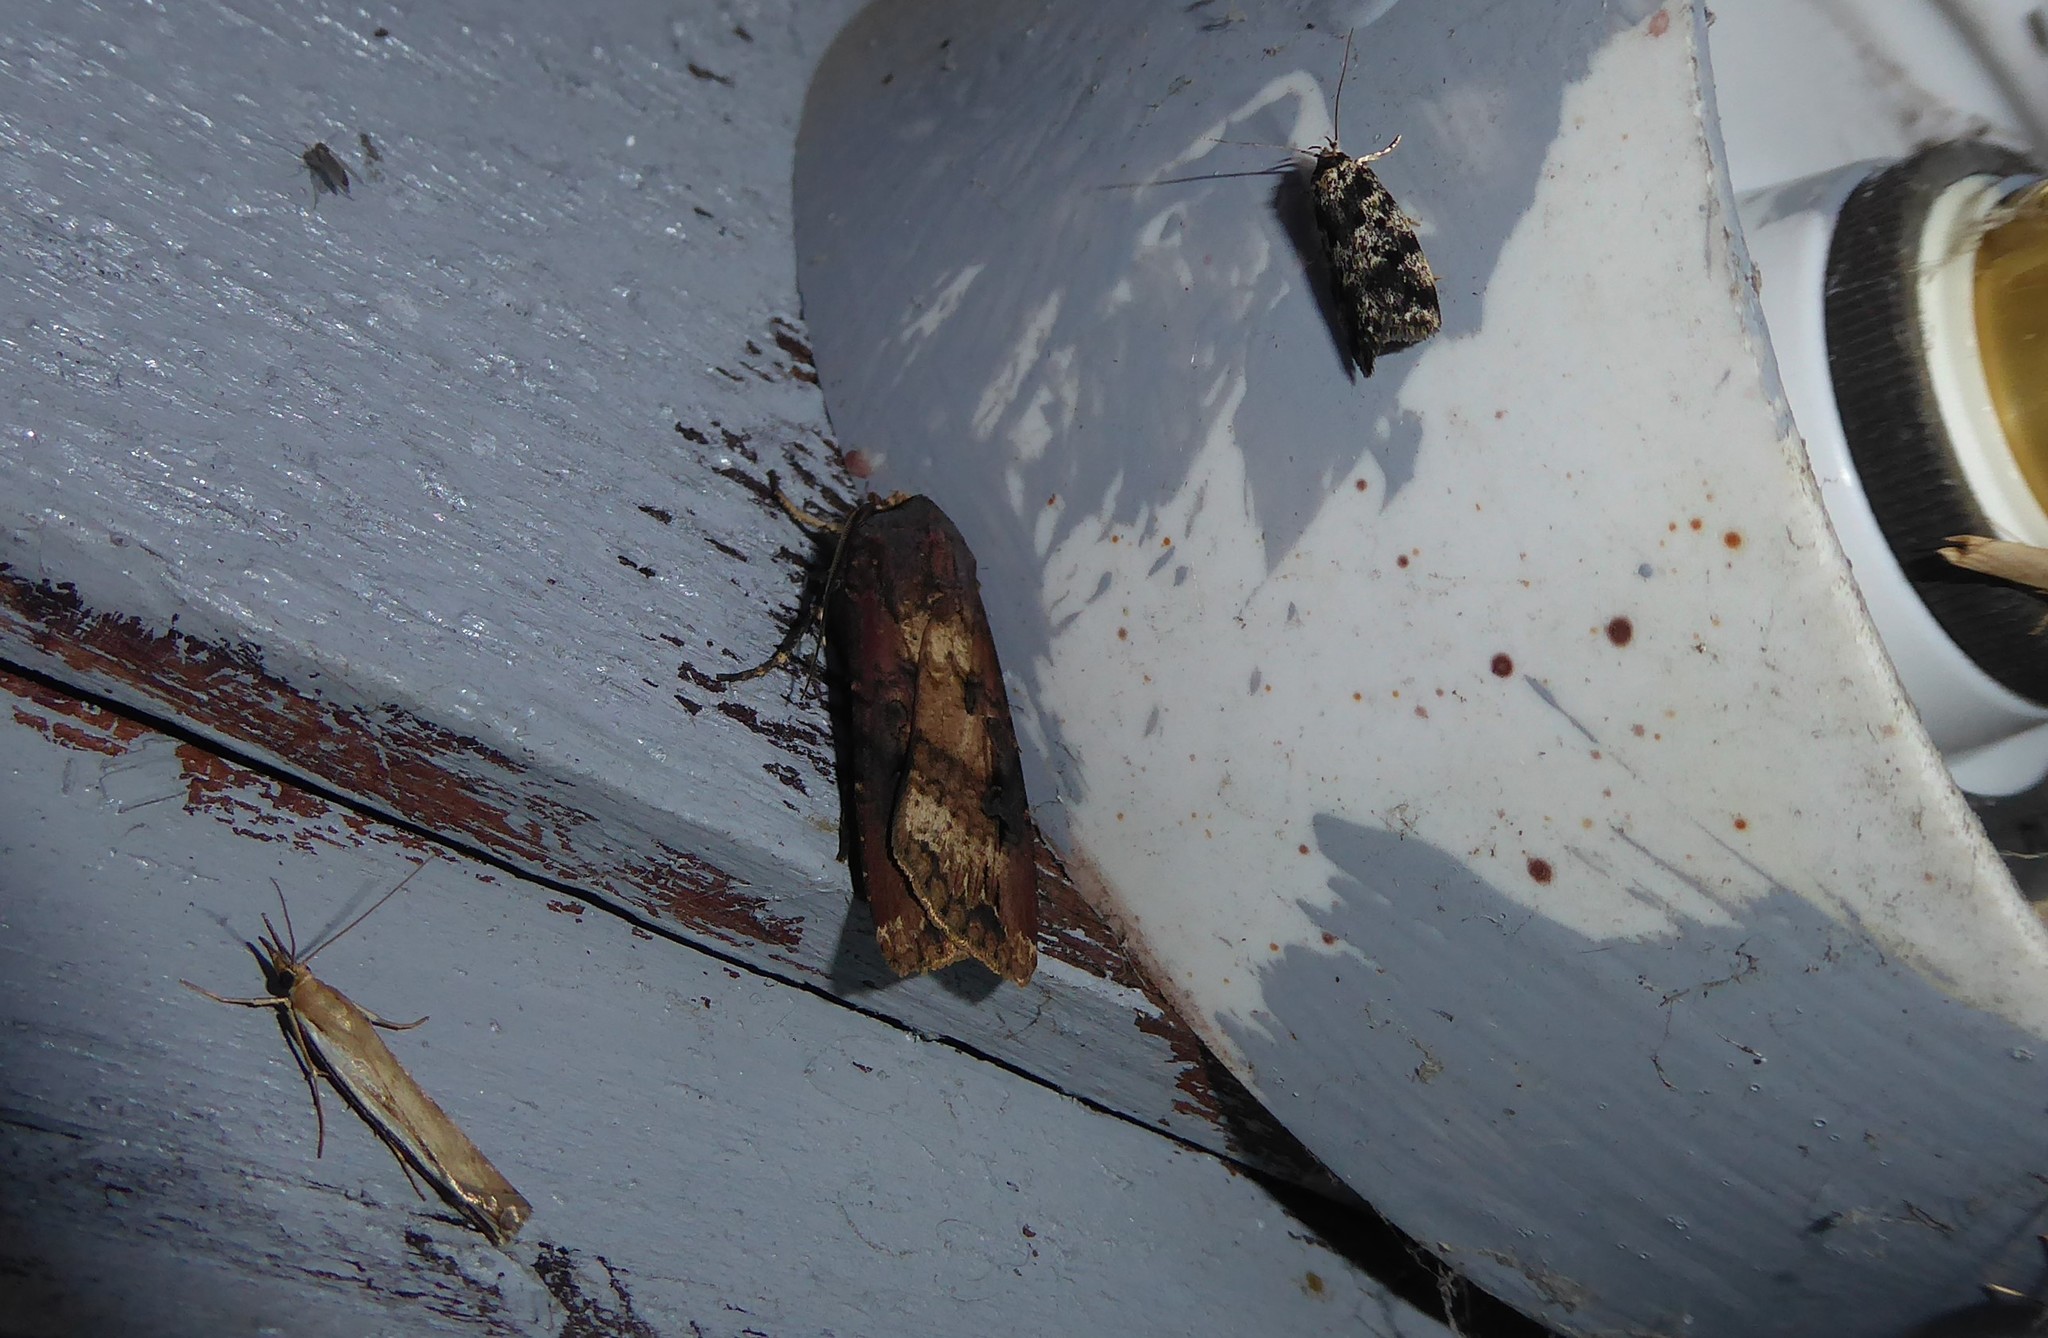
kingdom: Animalia
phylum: Arthropoda
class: Insecta
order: Lepidoptera
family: Noctuidae
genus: Agrotis
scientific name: Agrotis ipsilon
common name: Dark sword-grass
